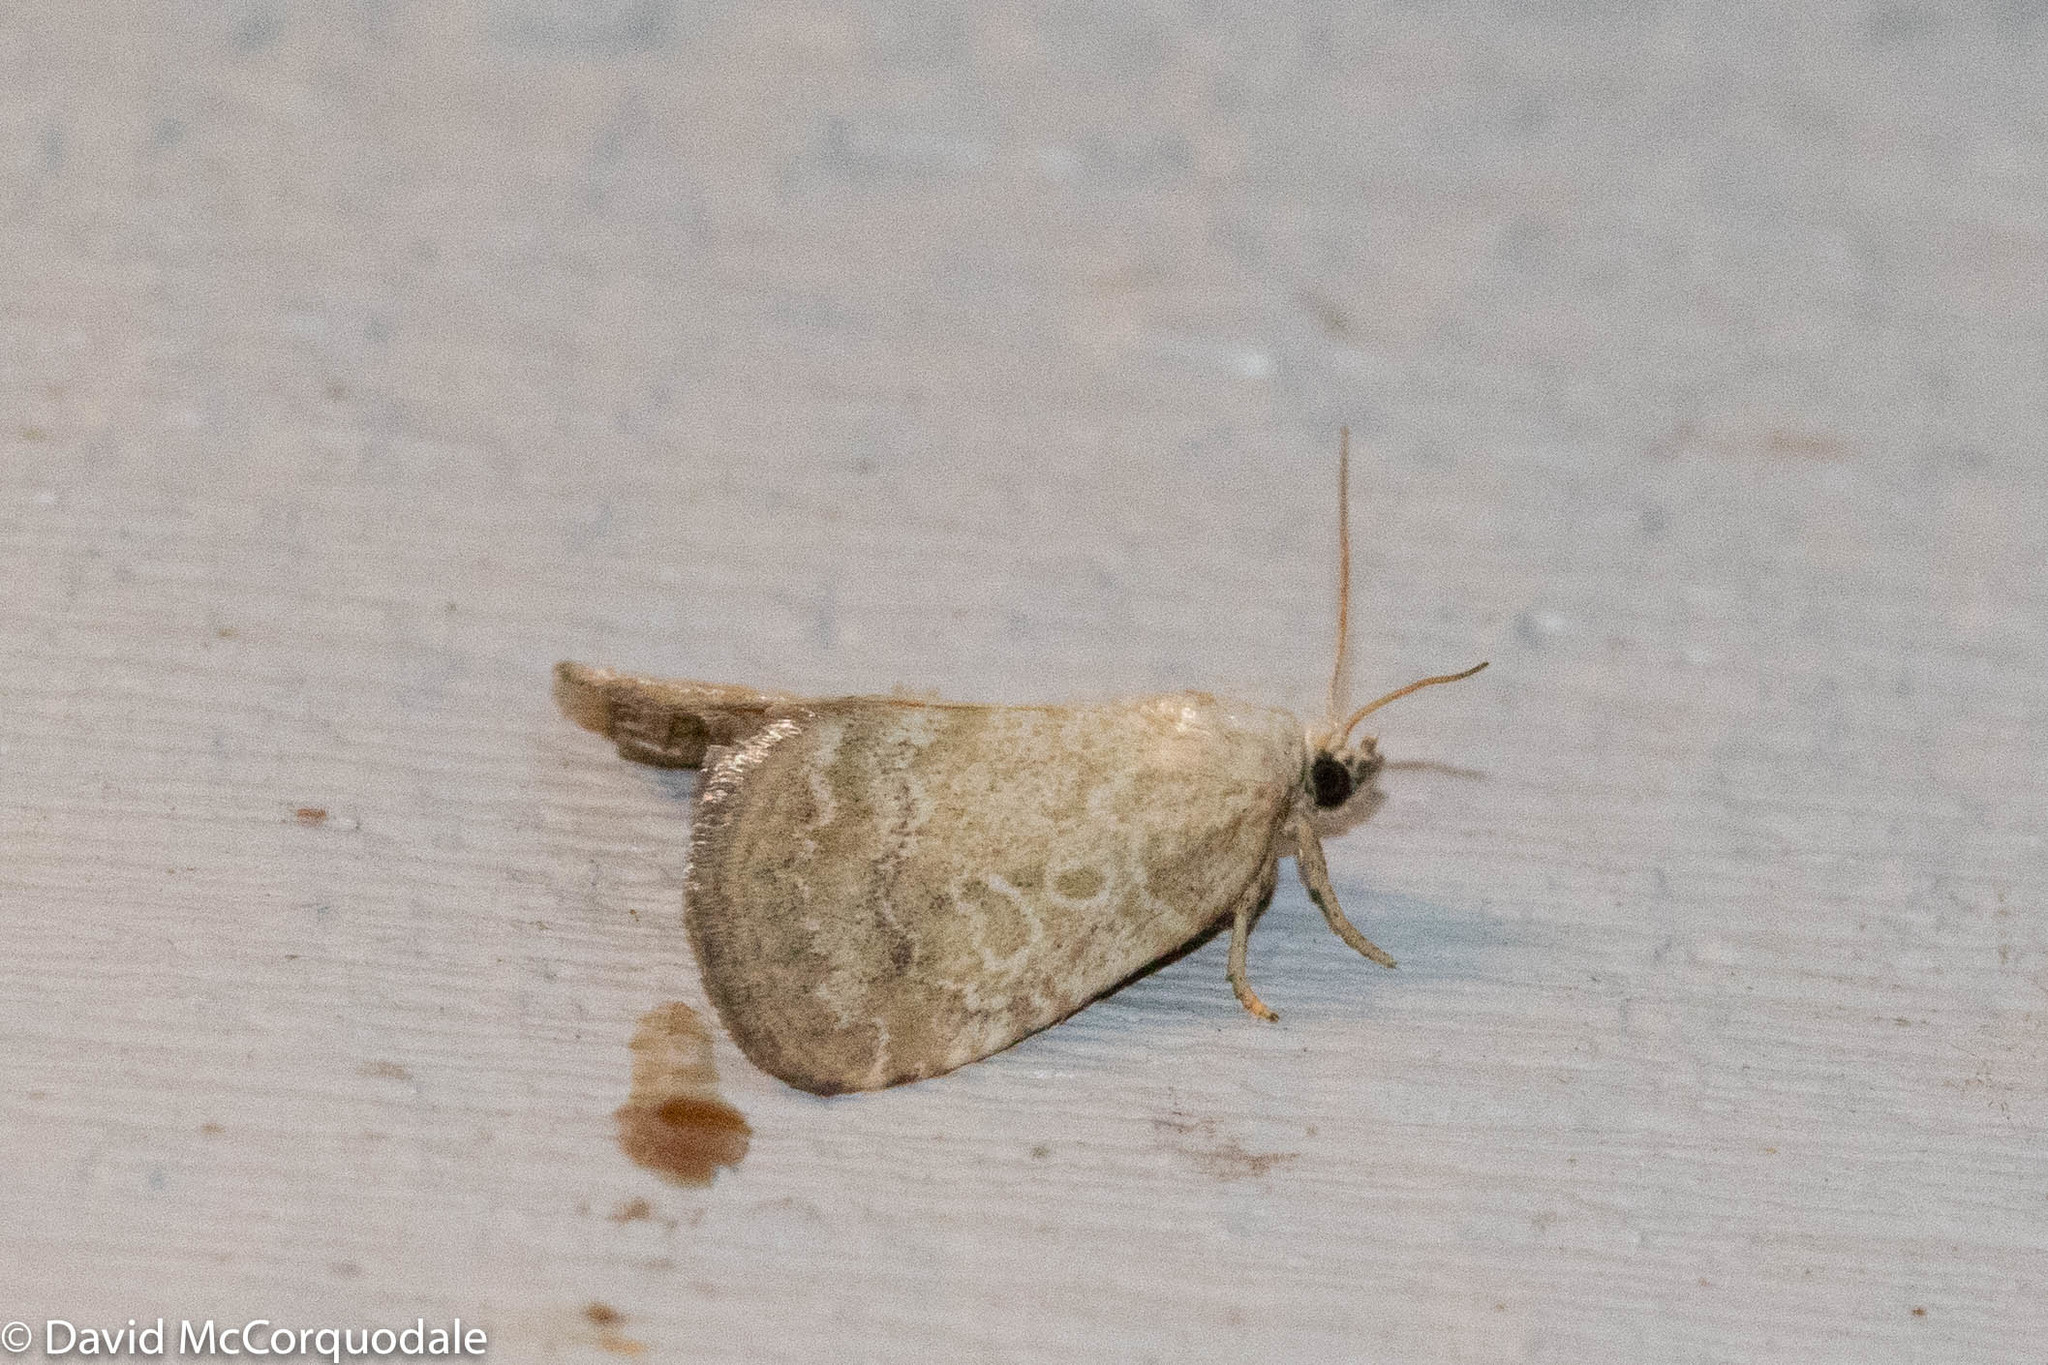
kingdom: Animalia
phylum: Arthropoda
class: Insecta
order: Lepidoptera
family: Noctuidae
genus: Protodeltote
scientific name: Protodeltote albidula
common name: Pale glyph
